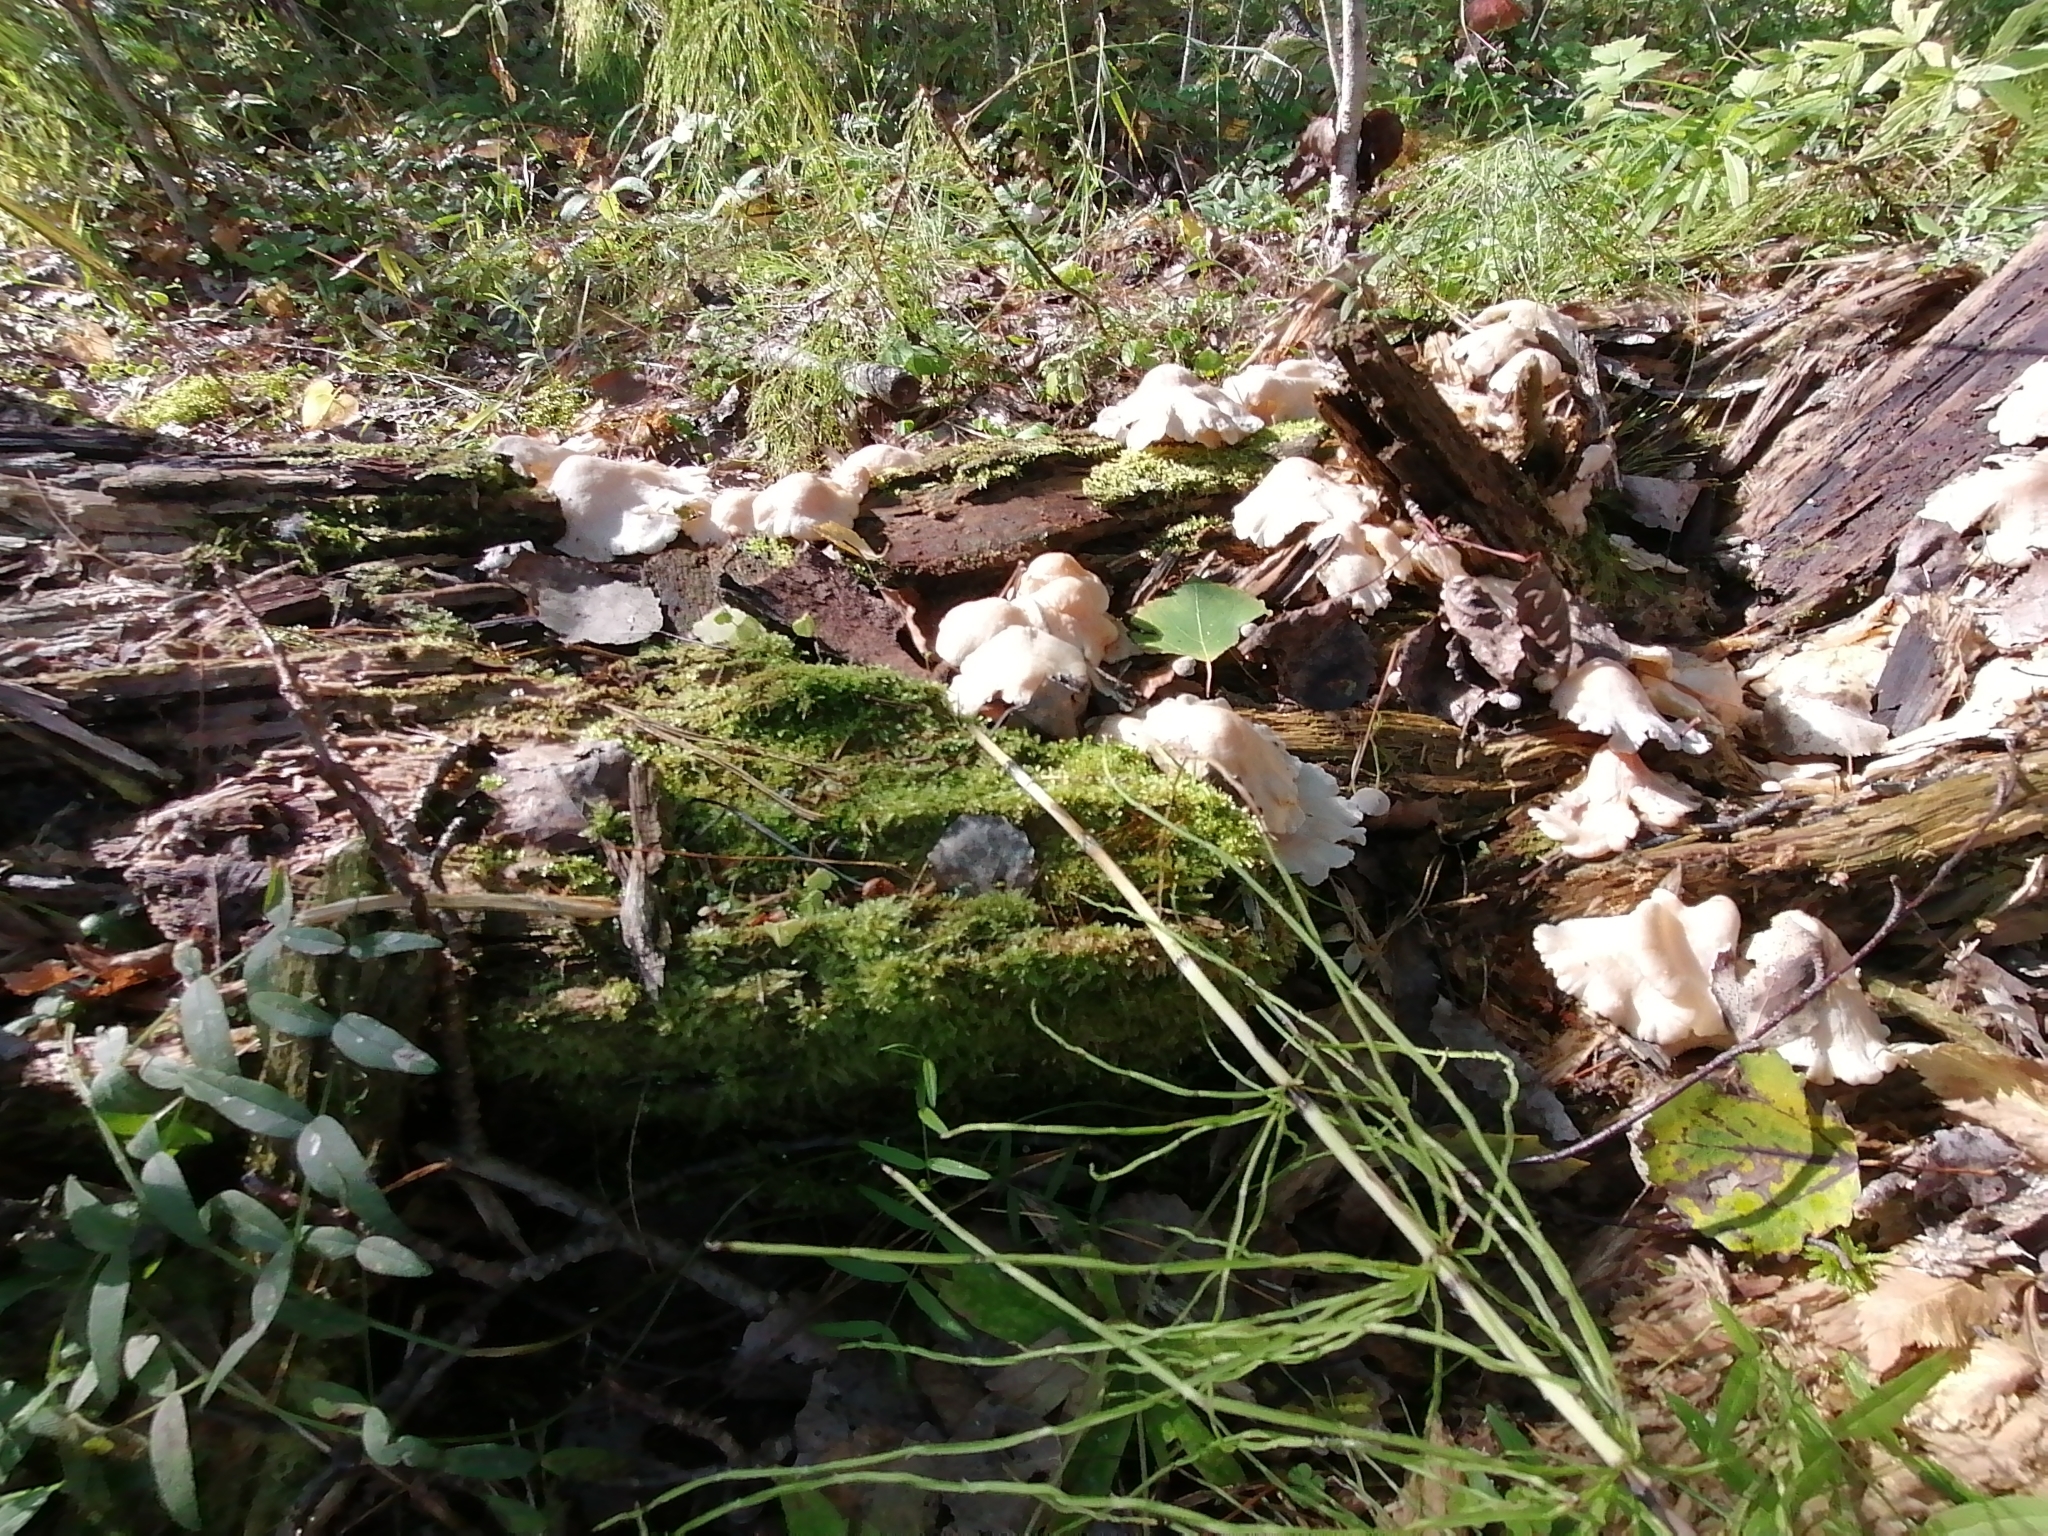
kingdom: Fungi
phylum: Basidiomycota
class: Agaricomycetes
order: Agaricales
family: Lyophyllaceae
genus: Ossicaulis
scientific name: Ossicaulis lignatilis
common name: Mealy oyster
